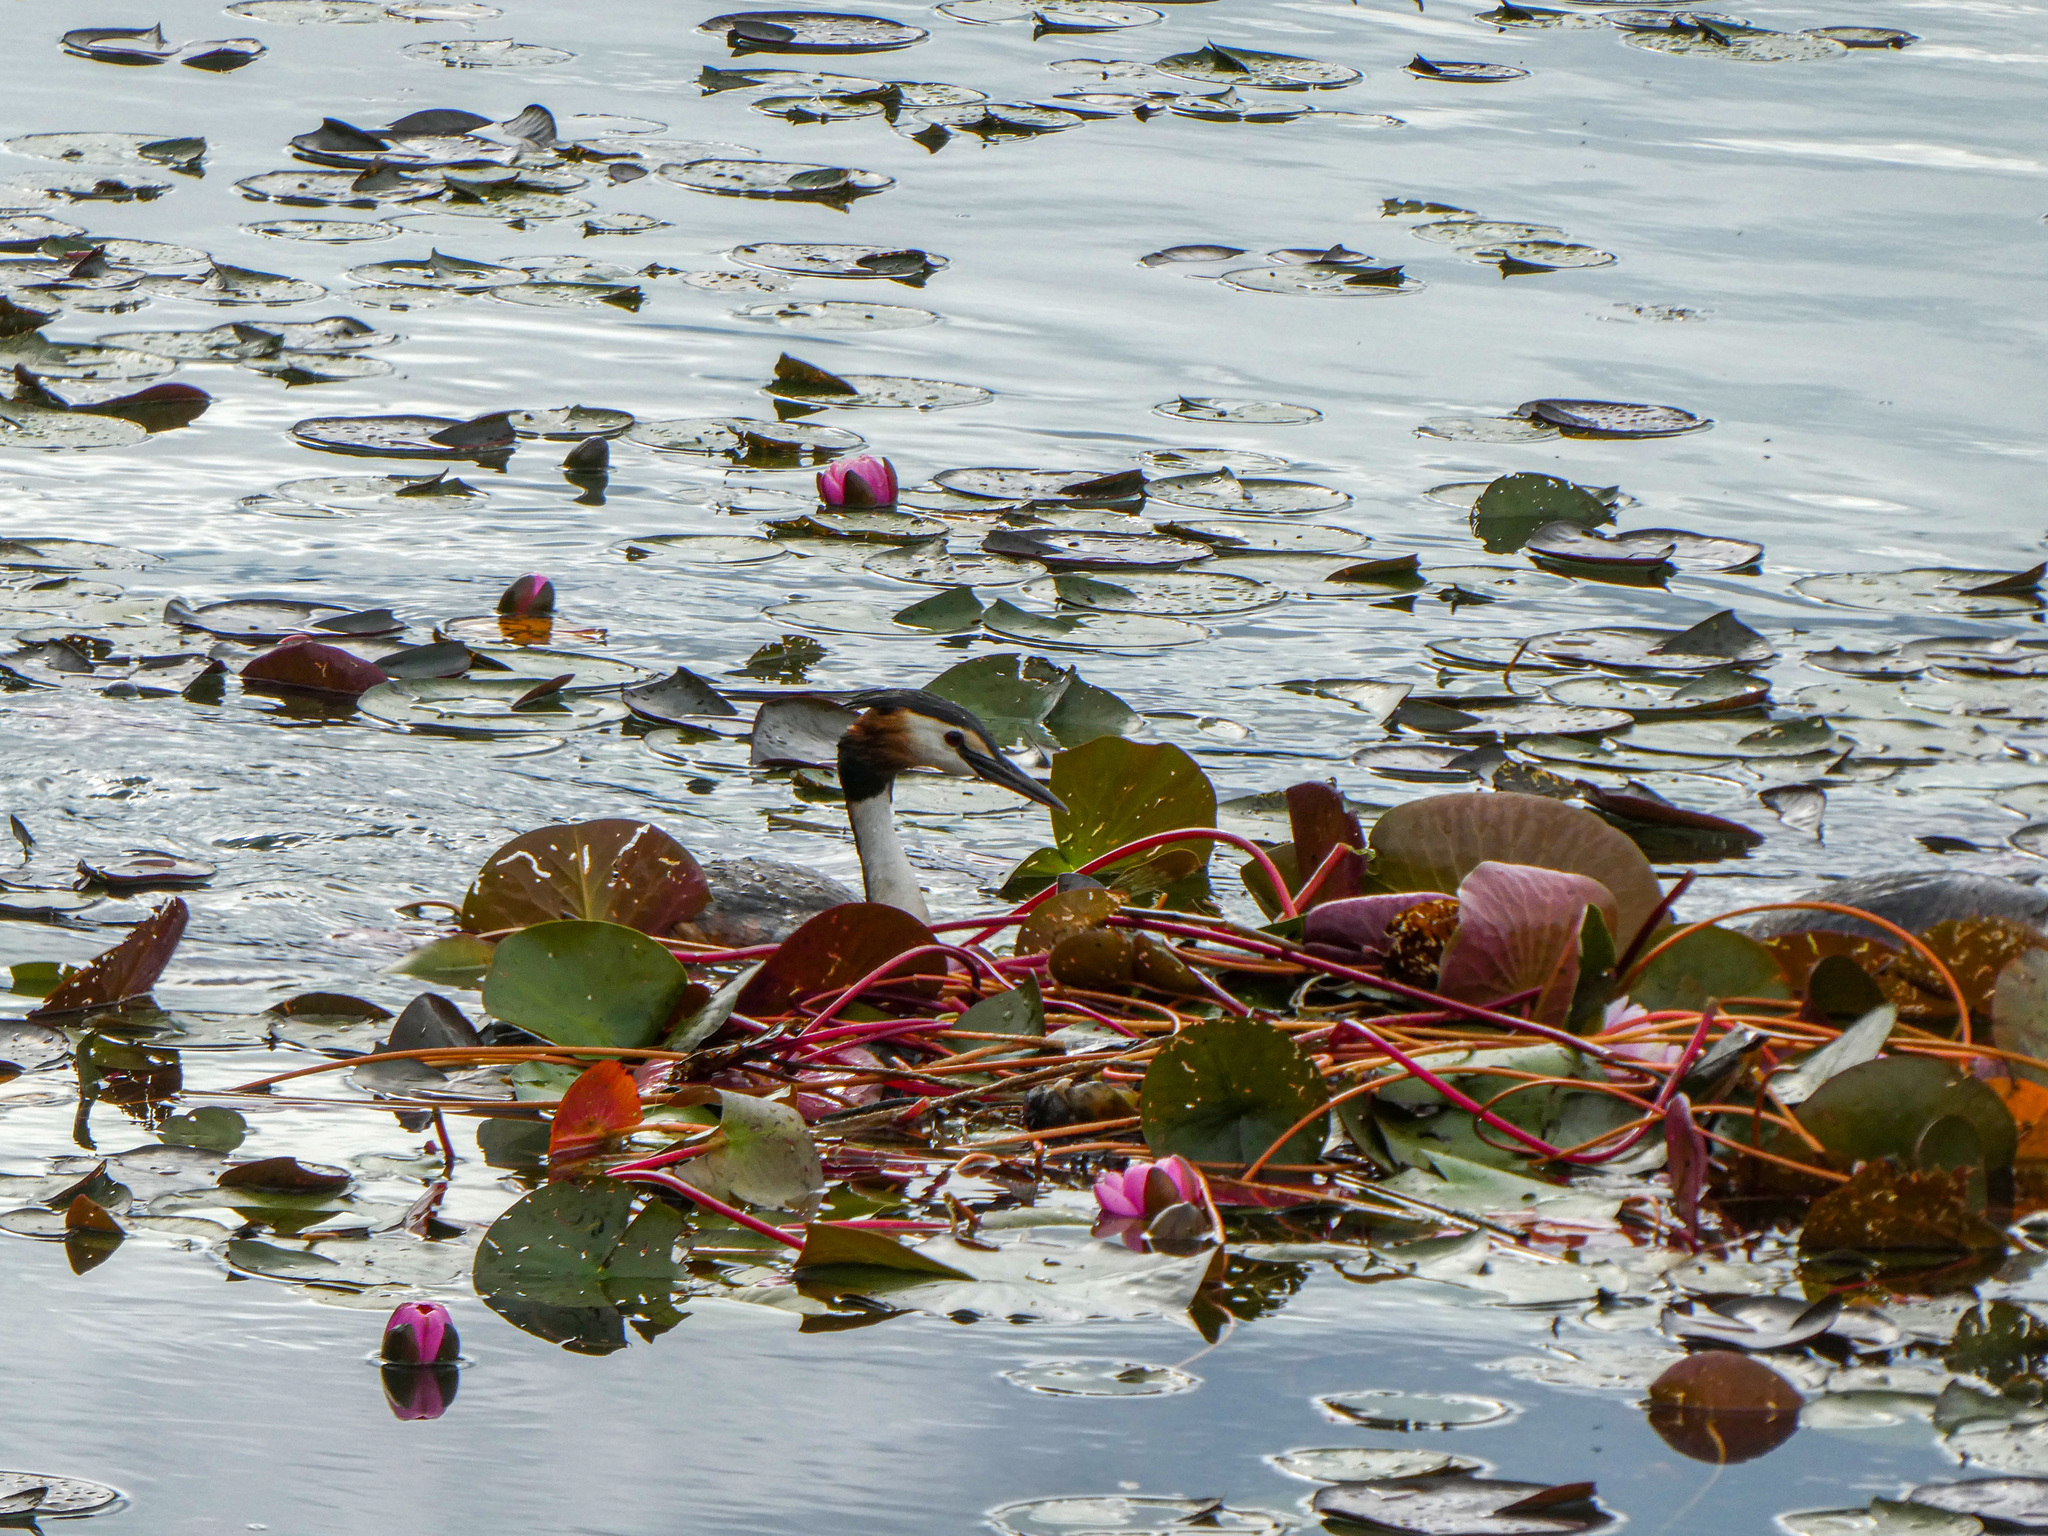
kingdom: Animalia
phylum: Chordata
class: Aves
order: Podicipediformes
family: Podicipedidae
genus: Podiceps
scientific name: Podiceps cristatus
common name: Great crested grebe
